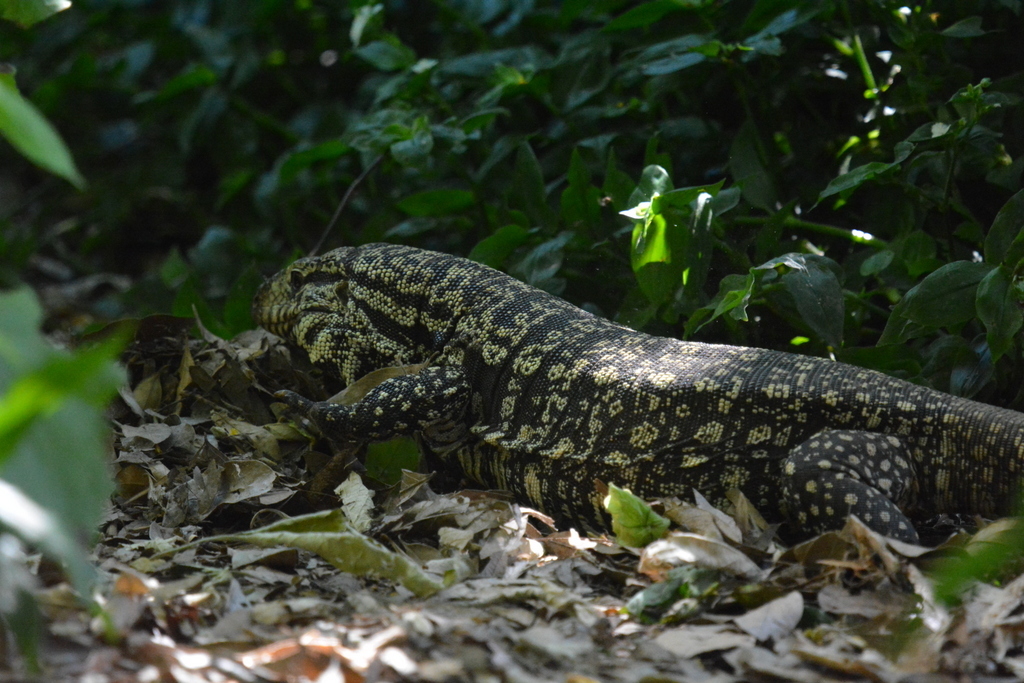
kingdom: Animalia
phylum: Chordata
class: Squamata
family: Teiidae
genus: Salvator
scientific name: Salvator merianae
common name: Argentine black and white tegu
